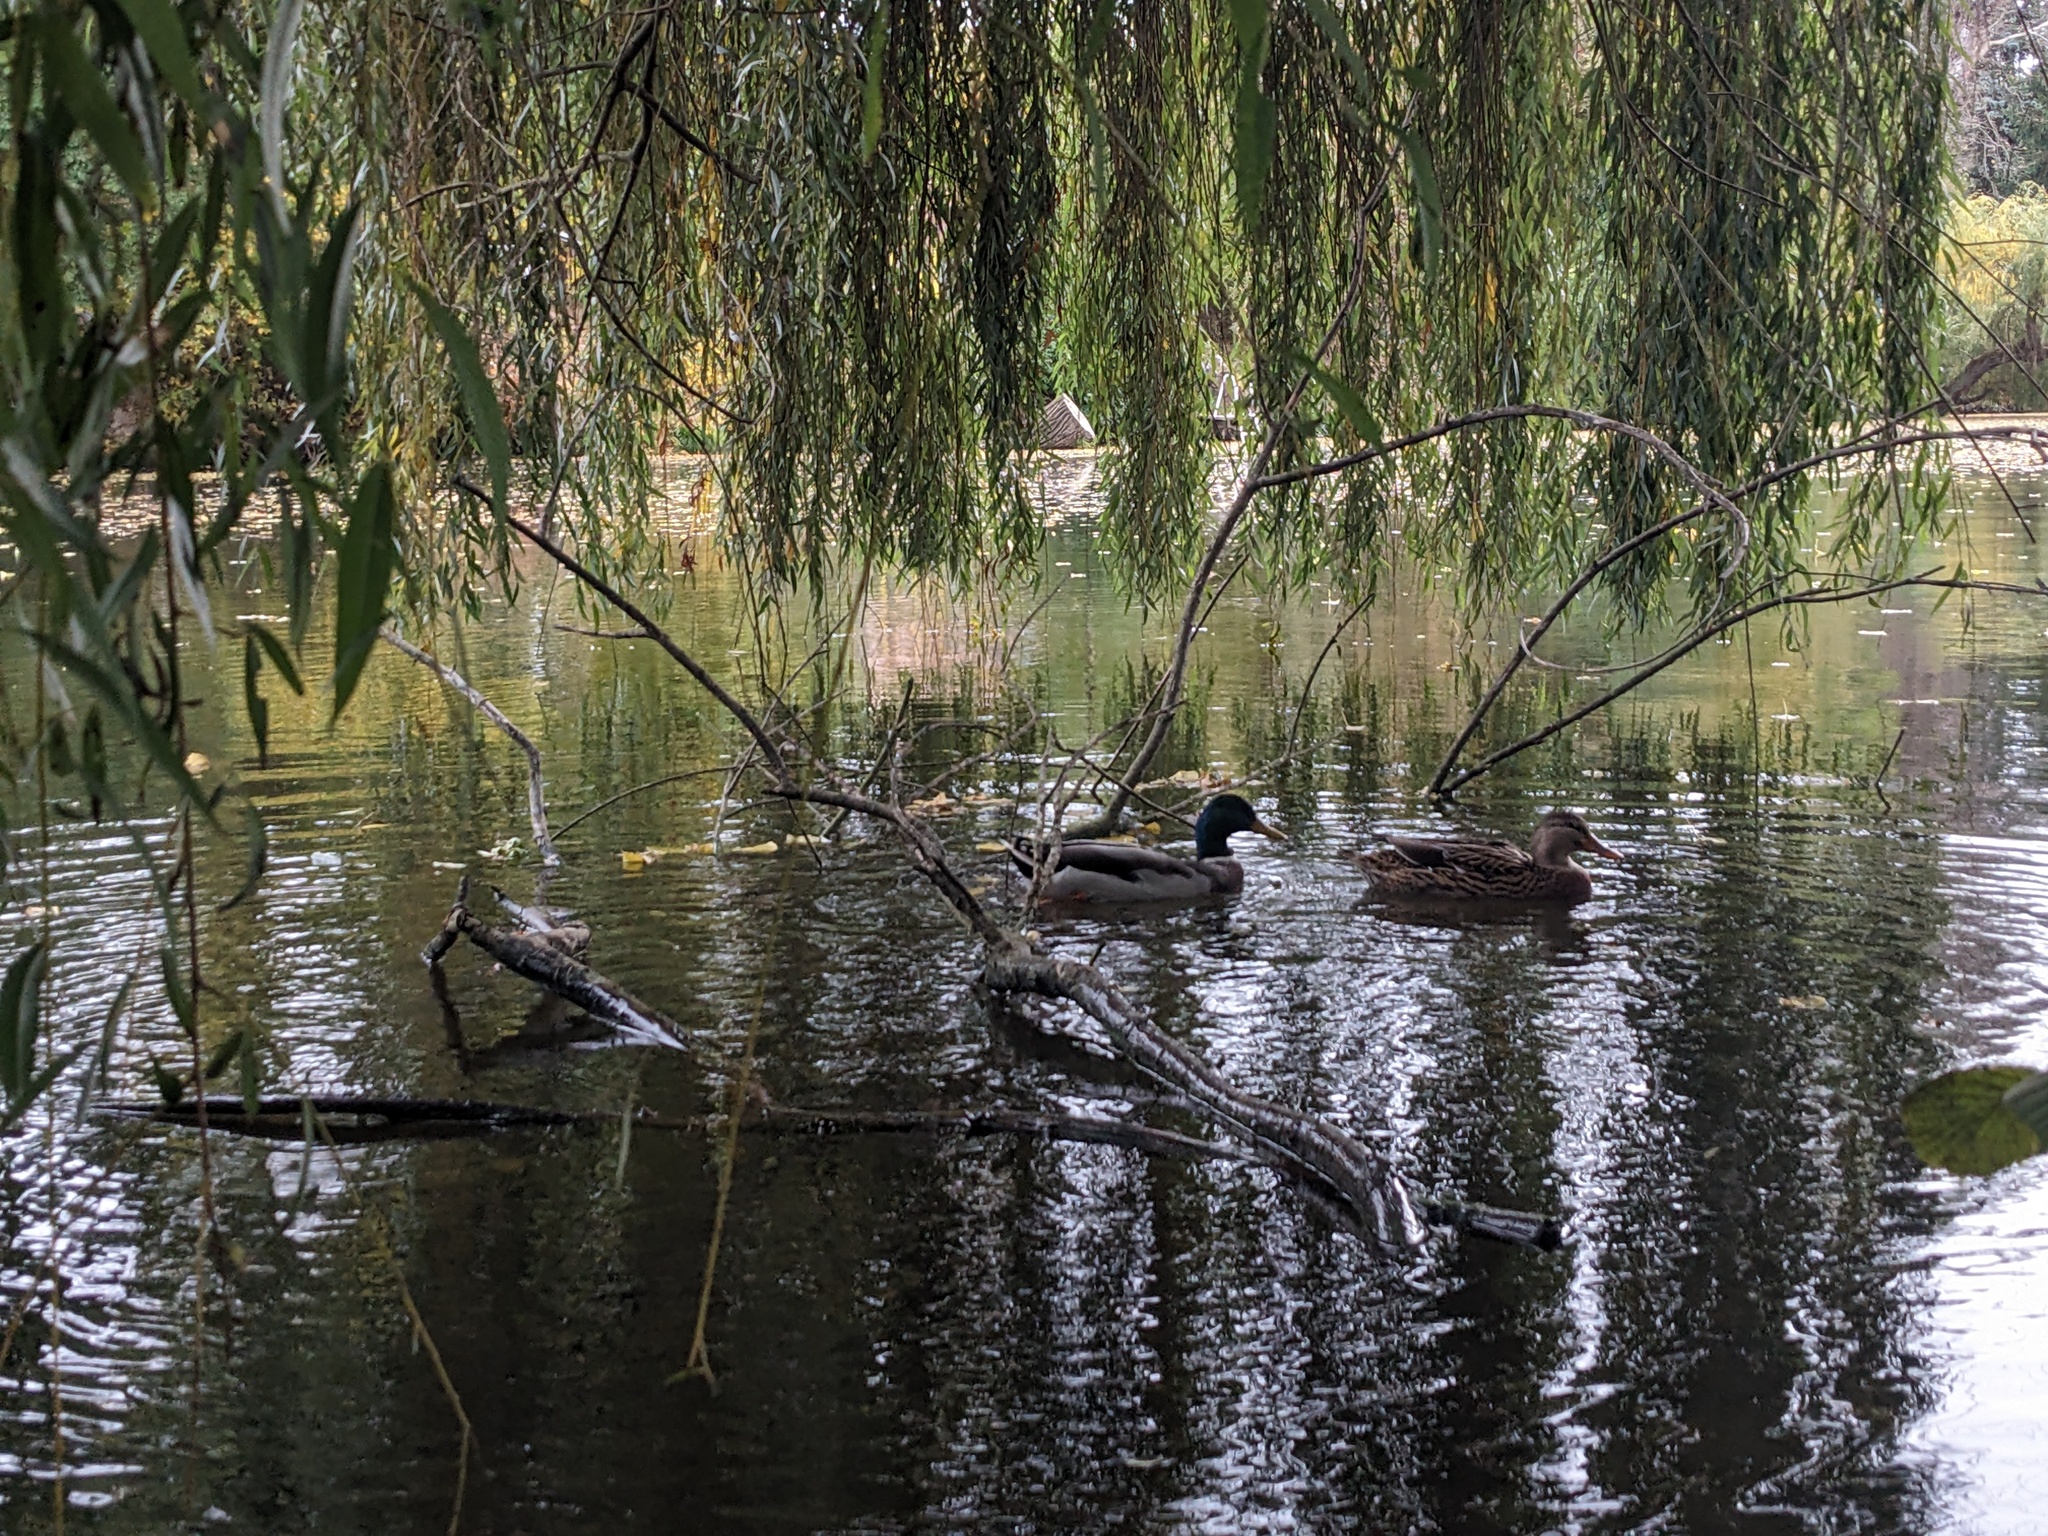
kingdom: Animalia
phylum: Chordata
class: Aves
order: Anseriformes
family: Anatidae
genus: Anas
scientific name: Anas platyrhynchos
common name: Mallard
